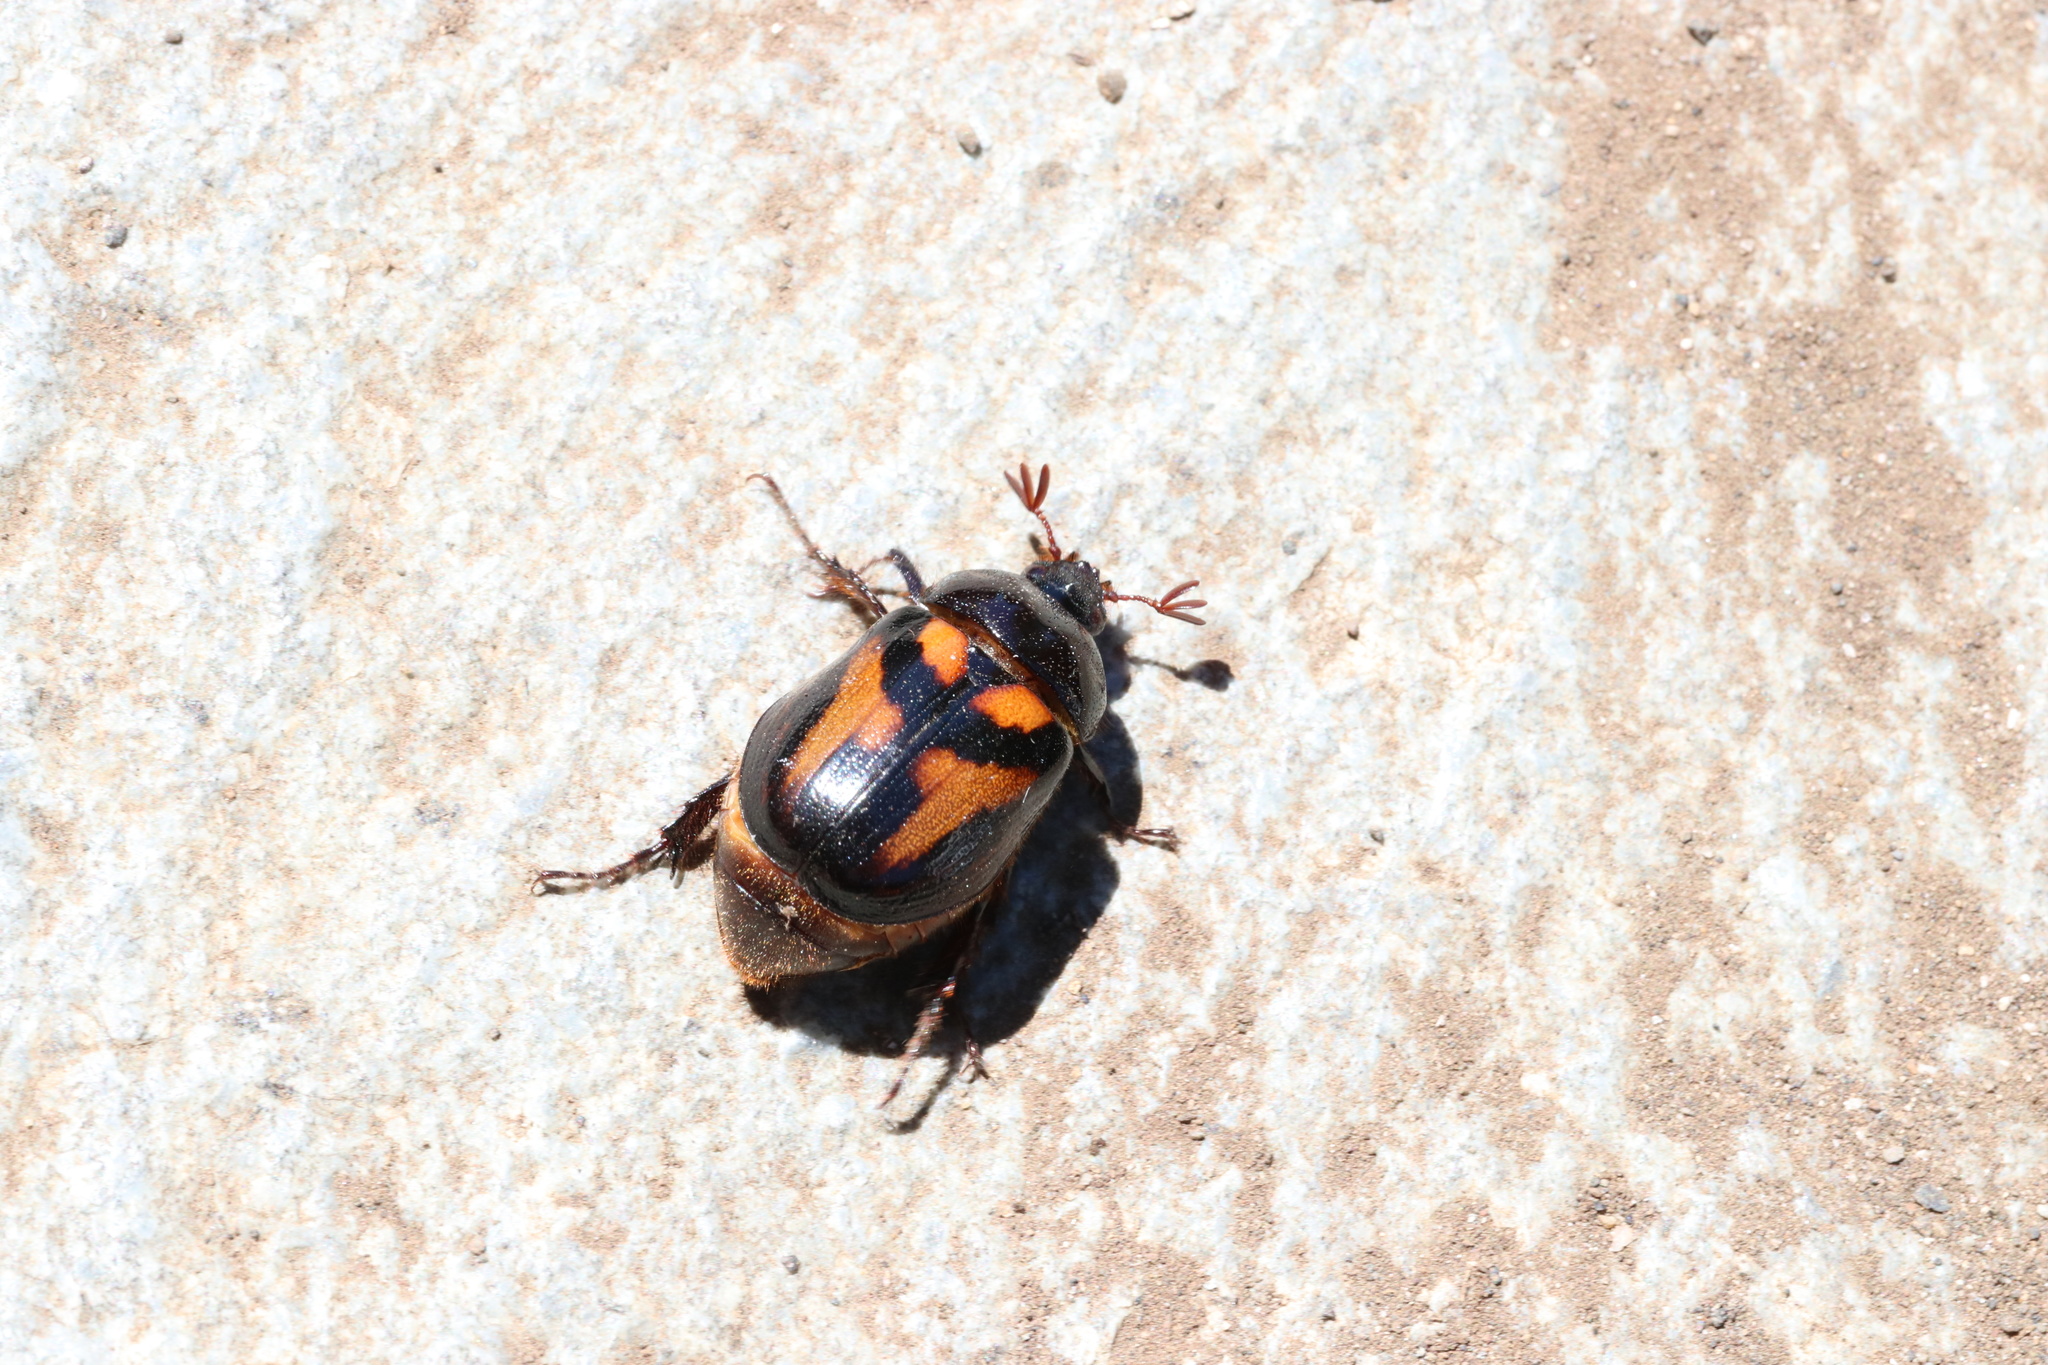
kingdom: Animalia
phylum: Arthropoda
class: Insecta
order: Coleoptera
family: Scarabaeidae
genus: Oryctomorphus
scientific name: Oryctomorphus bimaculatus
